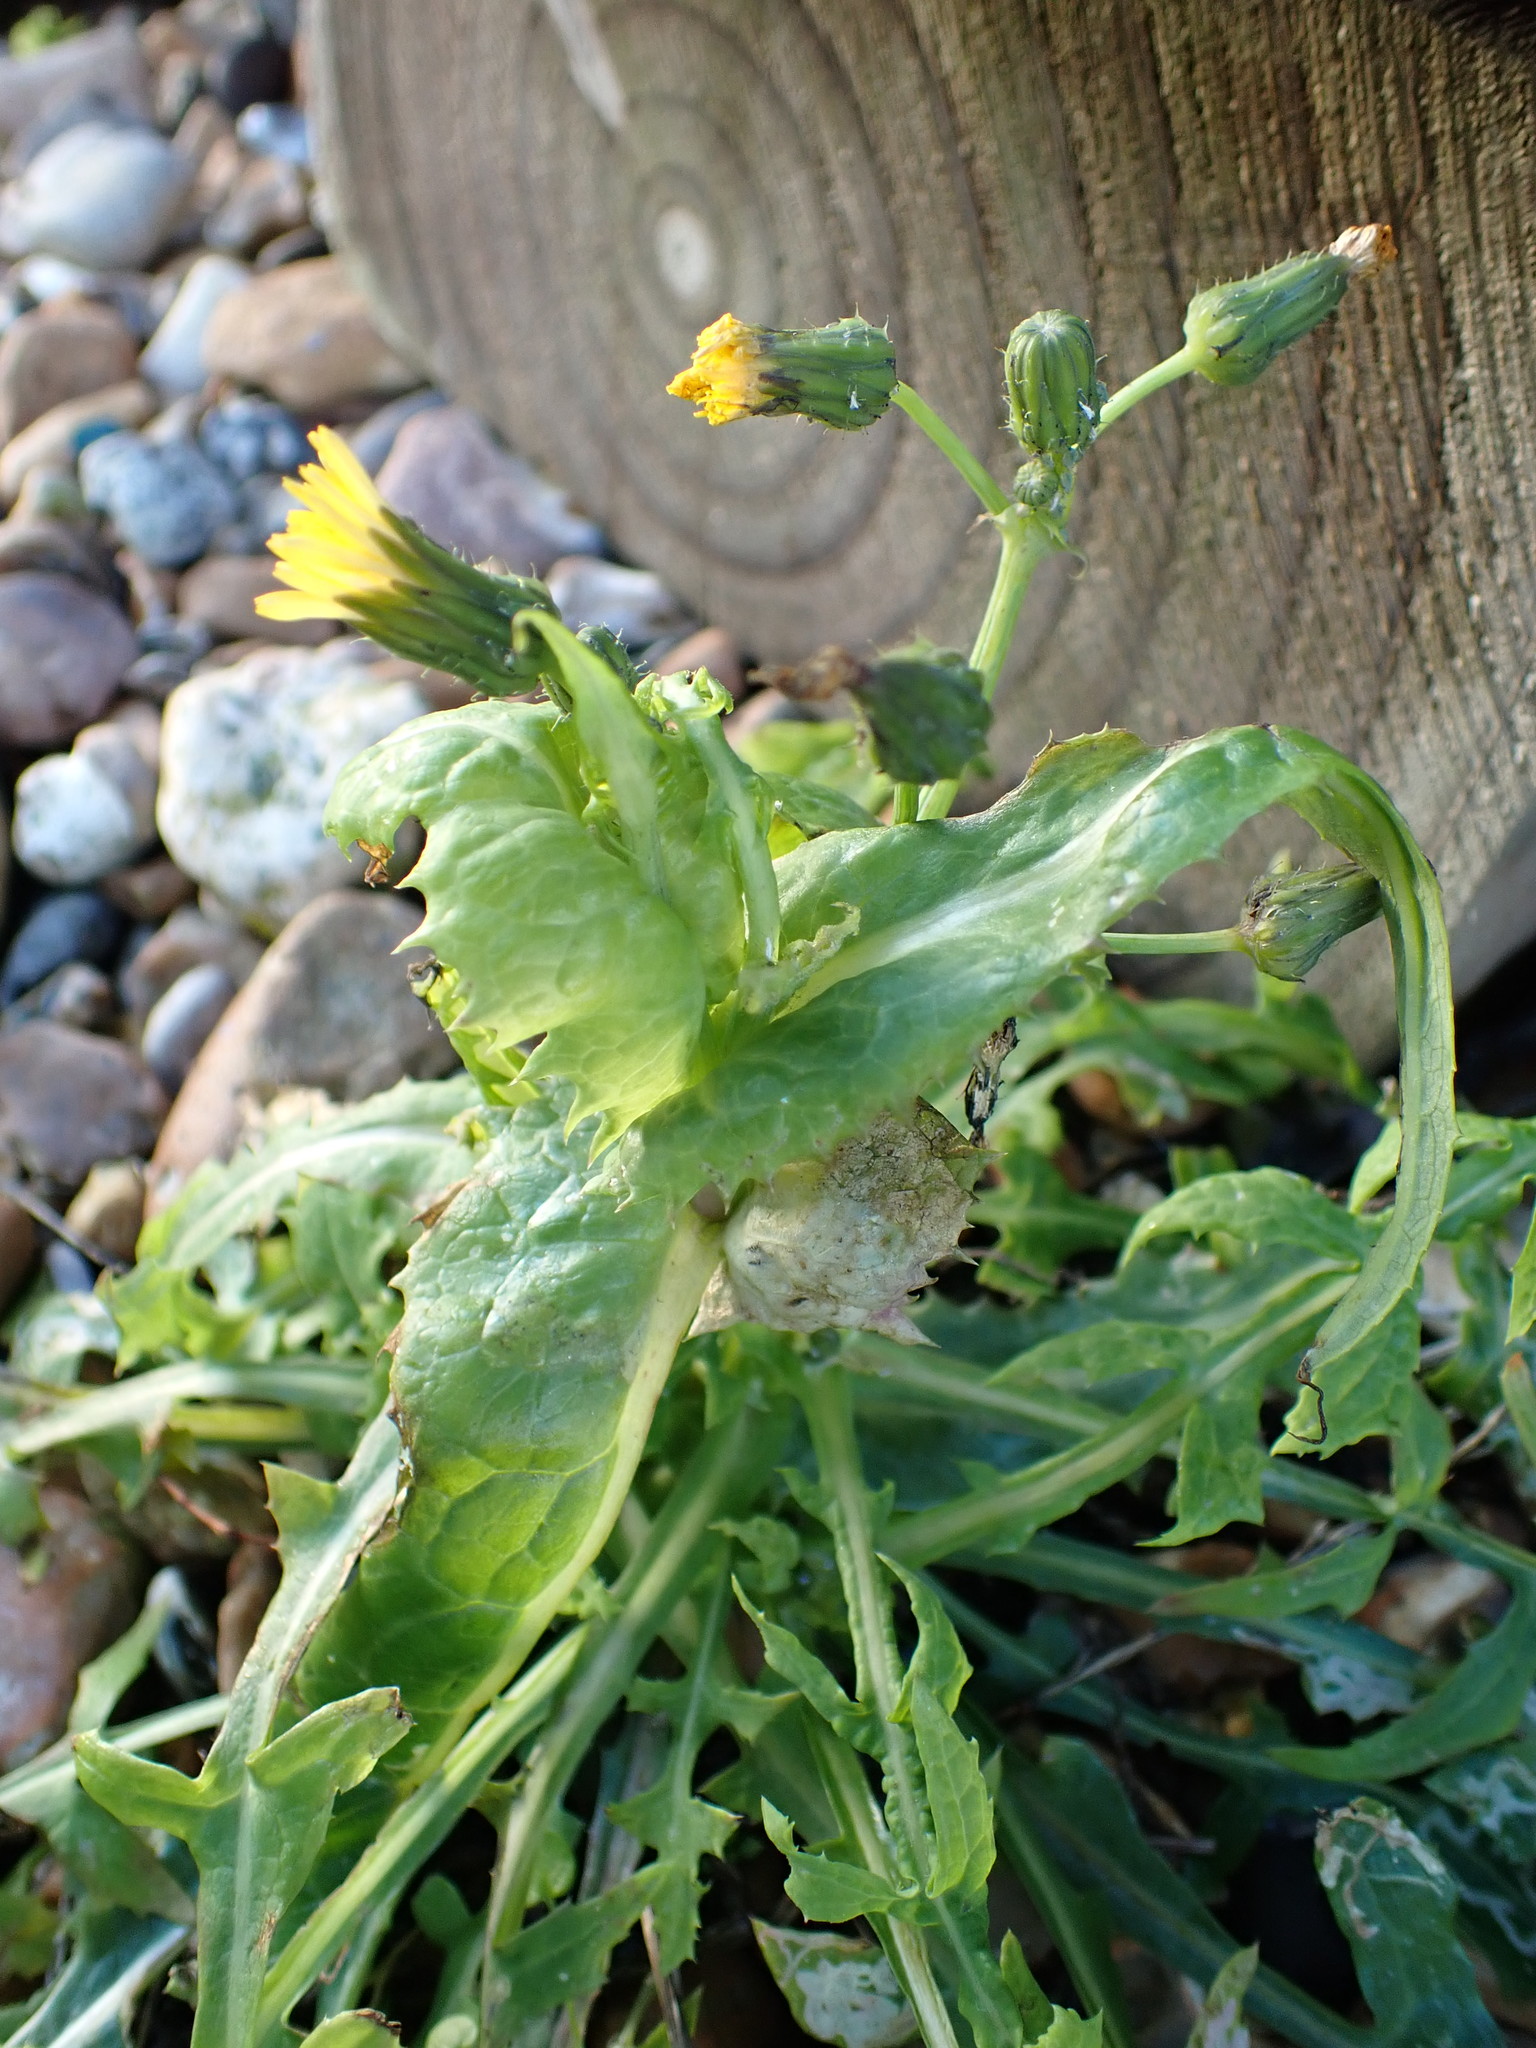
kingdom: Plantae
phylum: Tracheophyta
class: Magnoliopsida
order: Asterales
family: Asteraceae
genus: Sonchus
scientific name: Sonchus oleraceus
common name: Common sowthistle
